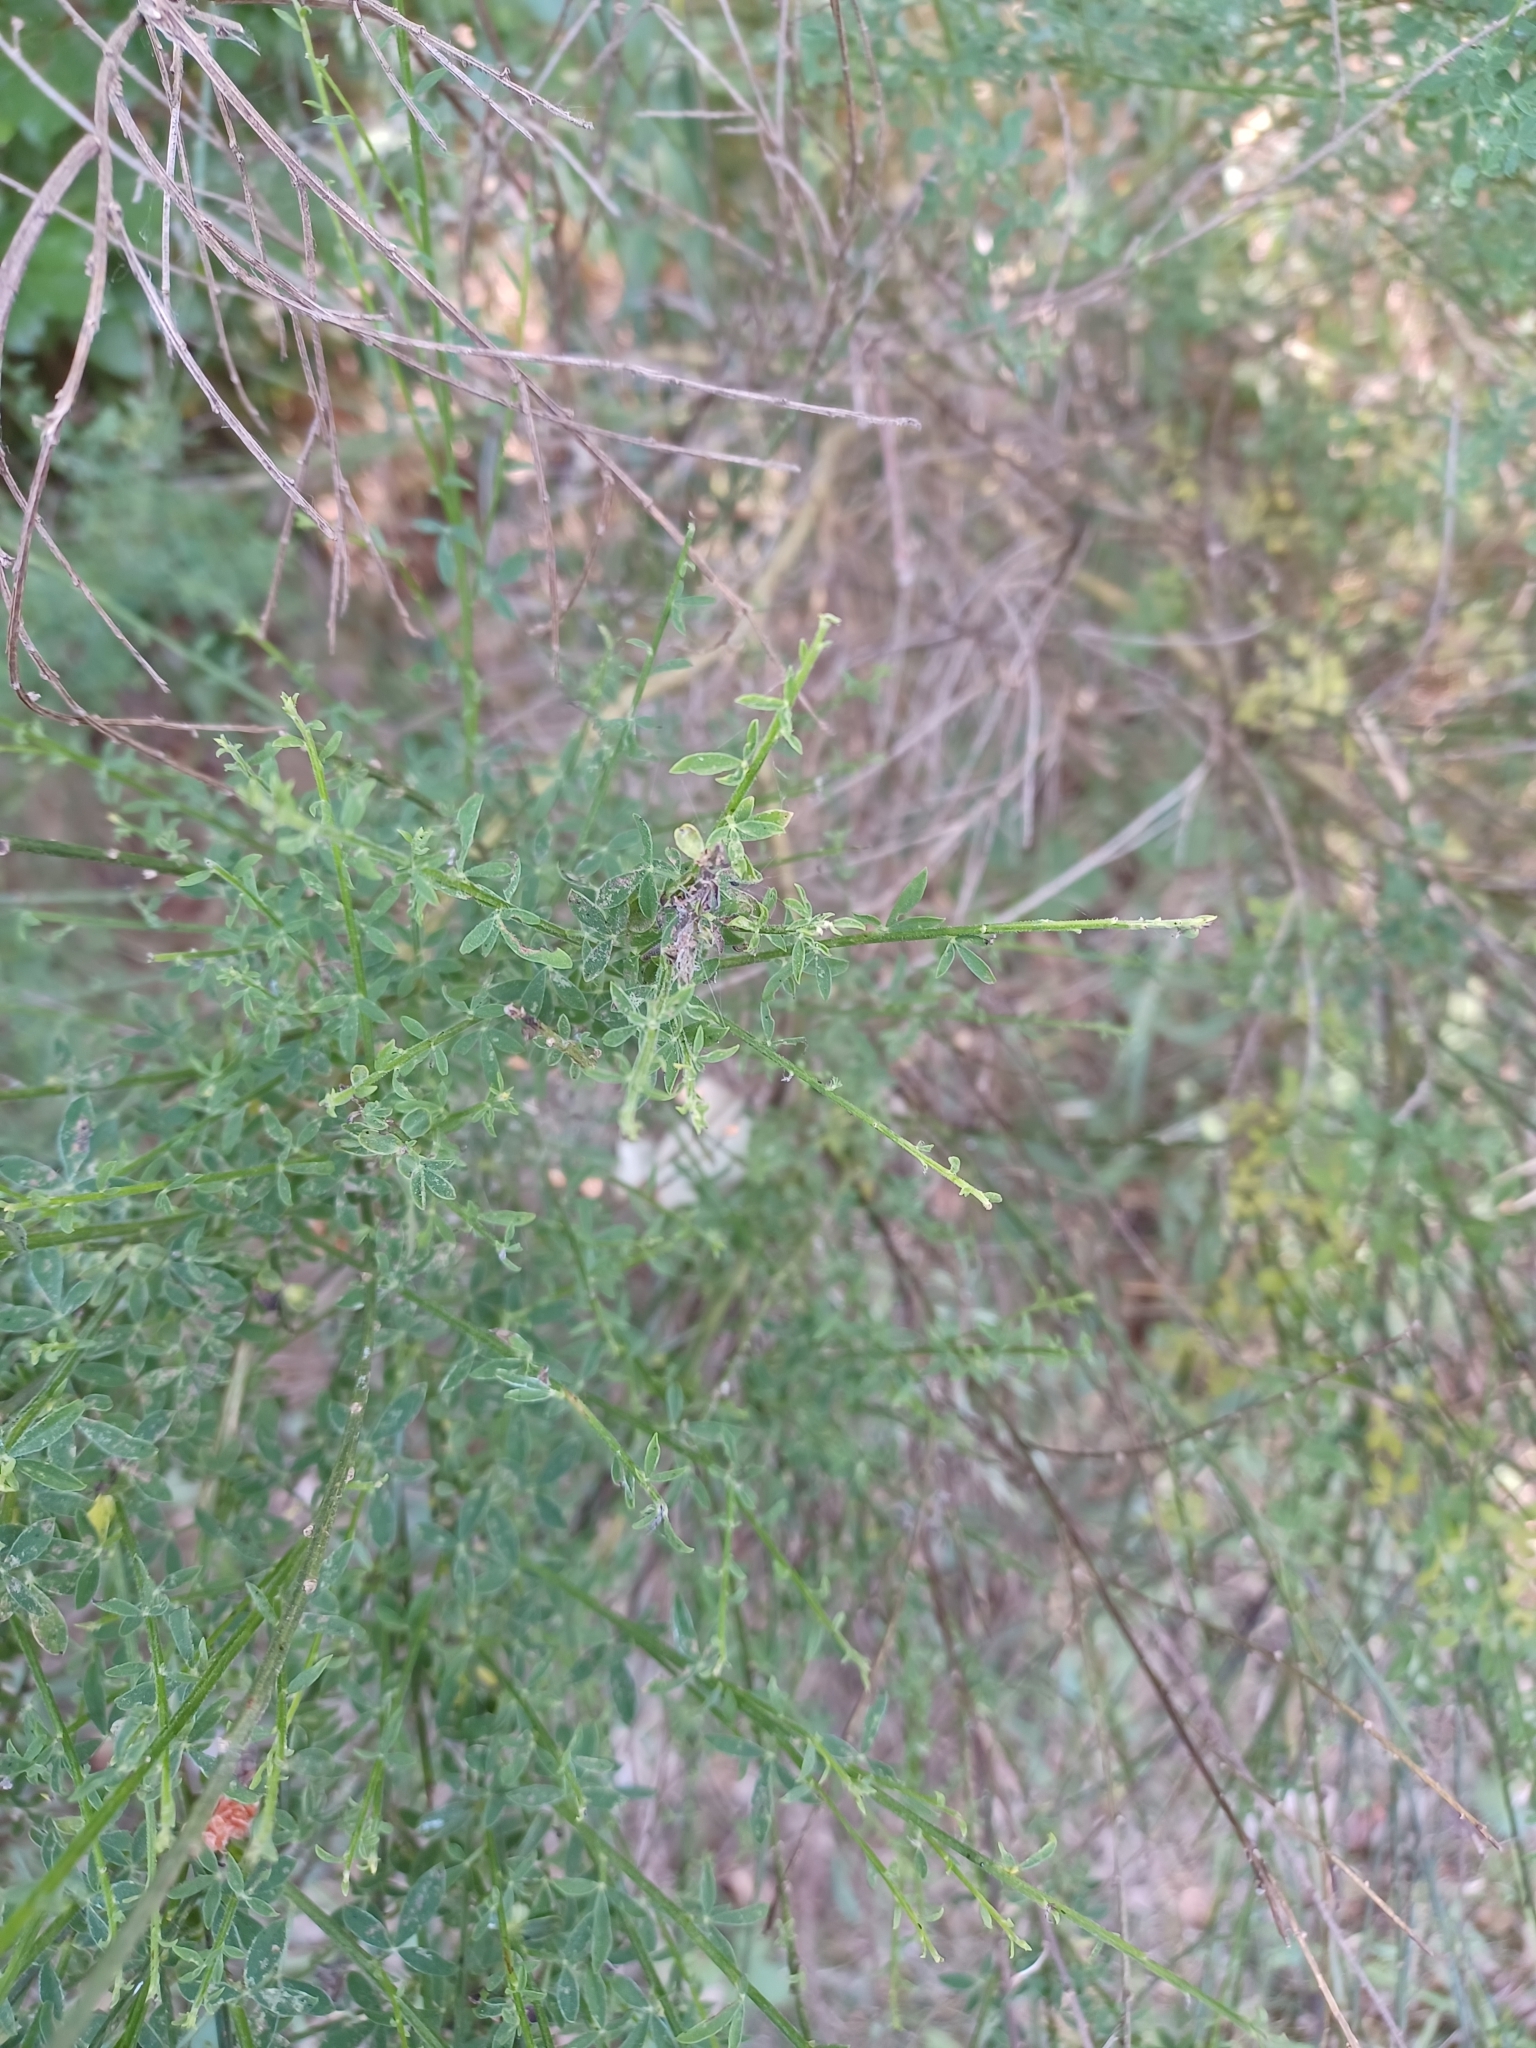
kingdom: Plantae
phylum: Tracheophyta
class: Magnoliopsida
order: Fabales
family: Fabaceae
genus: Cytisus
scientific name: Cytisus scoparius
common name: Scotch broom
